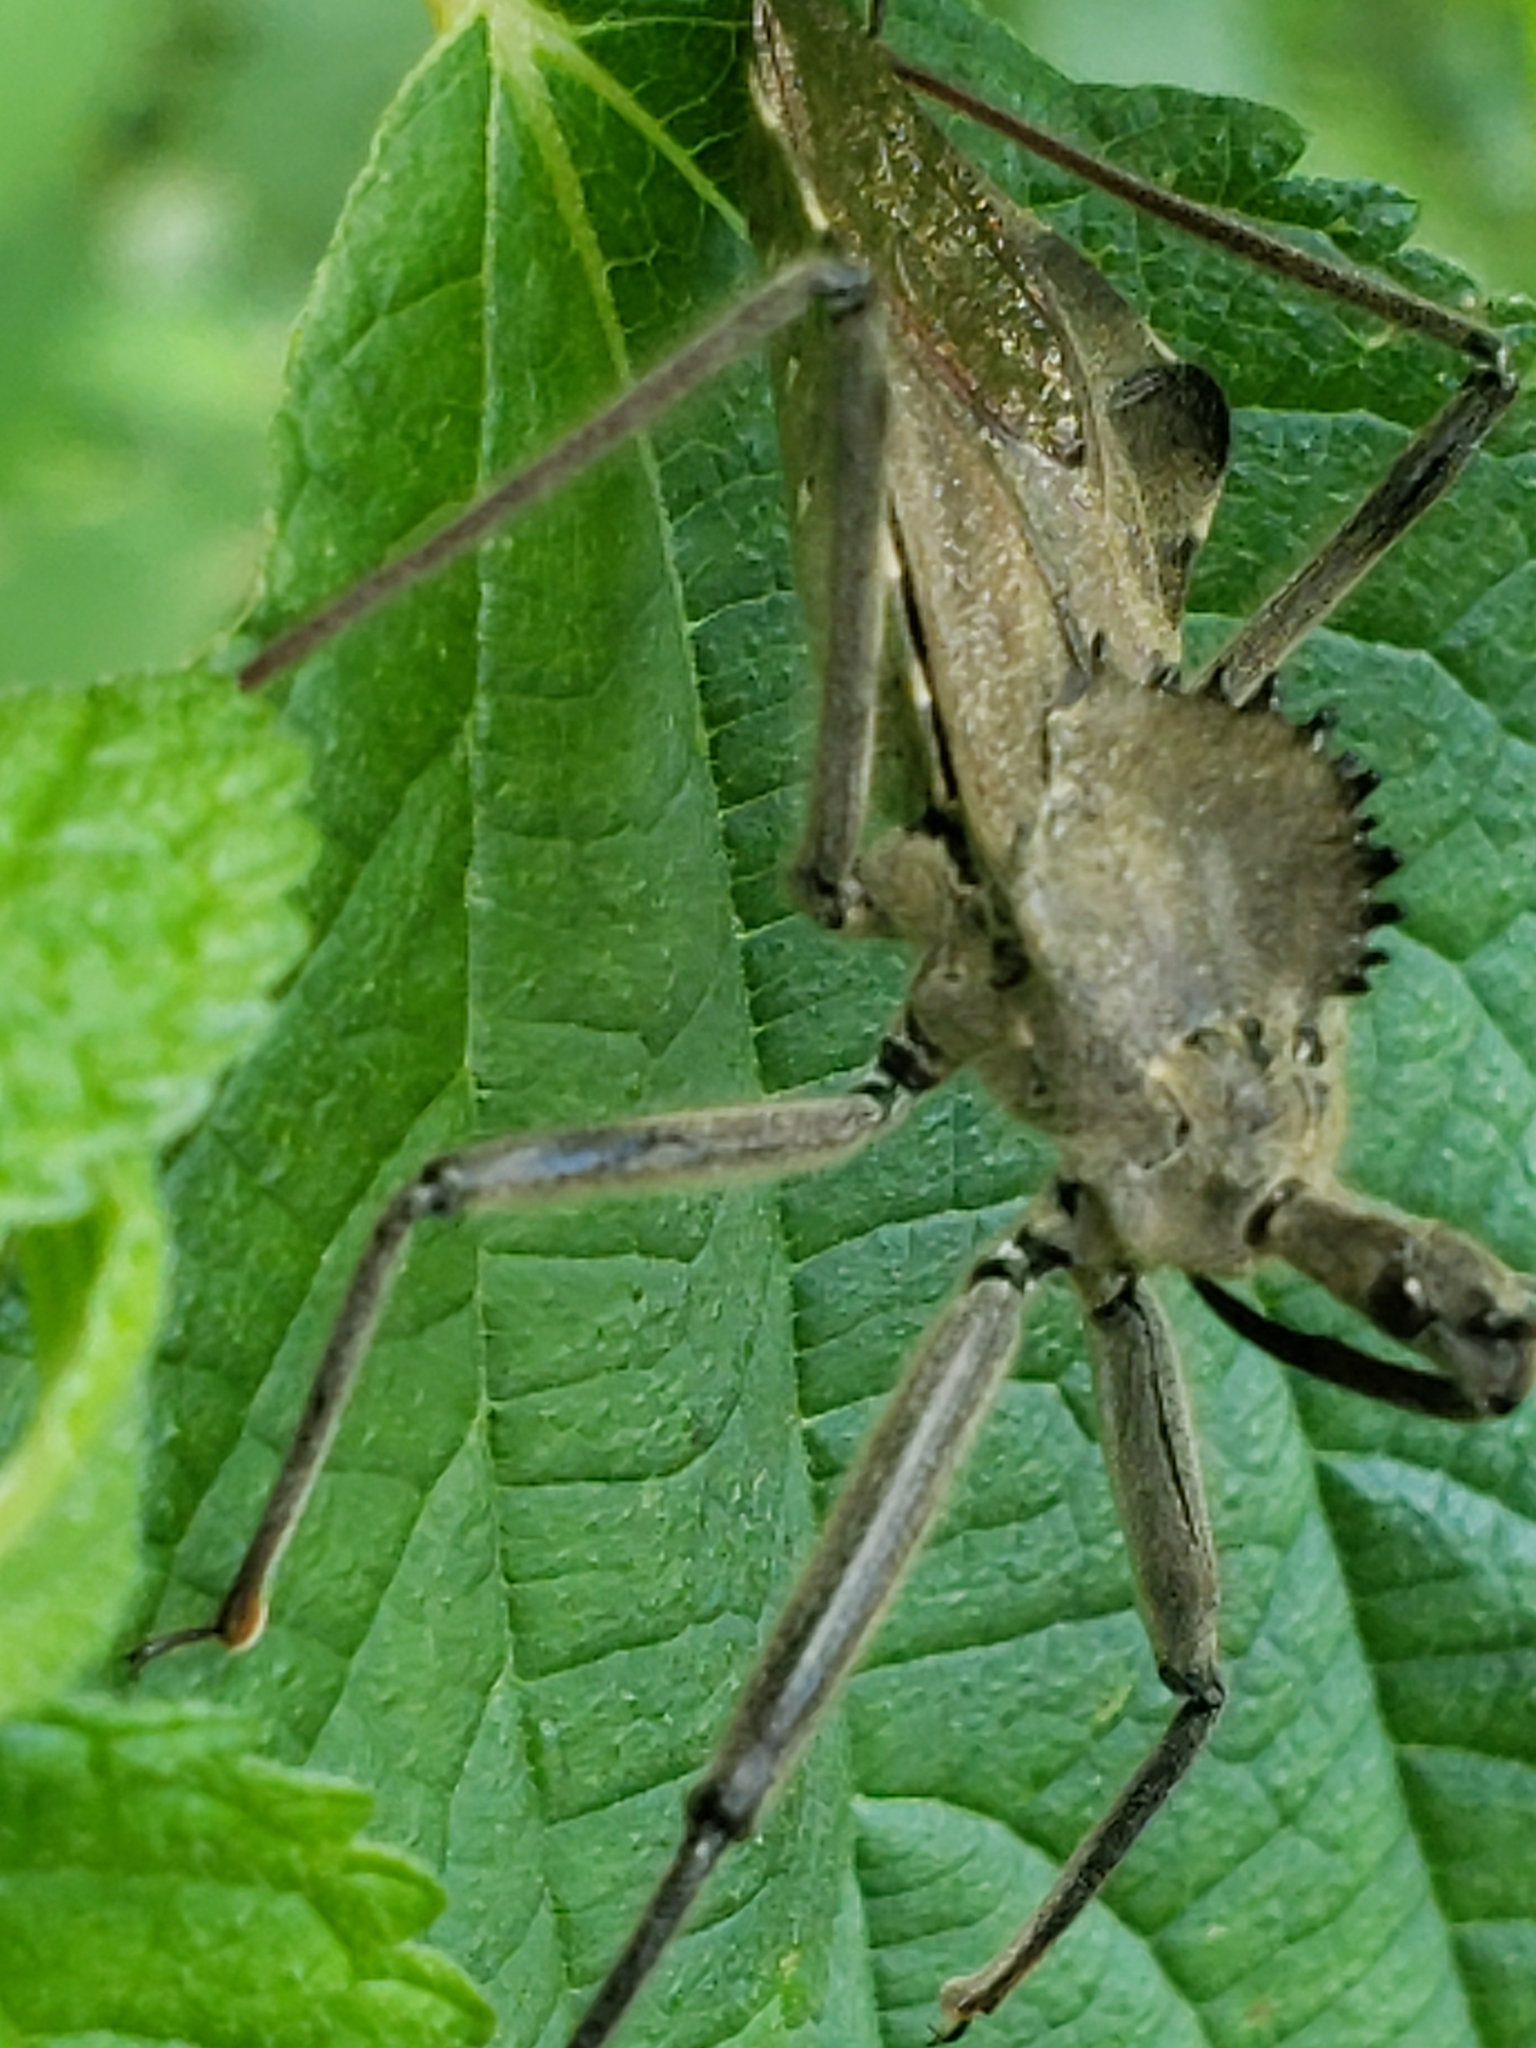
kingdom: Animalia
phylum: Arthropoda
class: Insecta
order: Hemiptera
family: Reduviidae
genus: Arilus
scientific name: Arilus cristatus
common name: North american wheel bug
